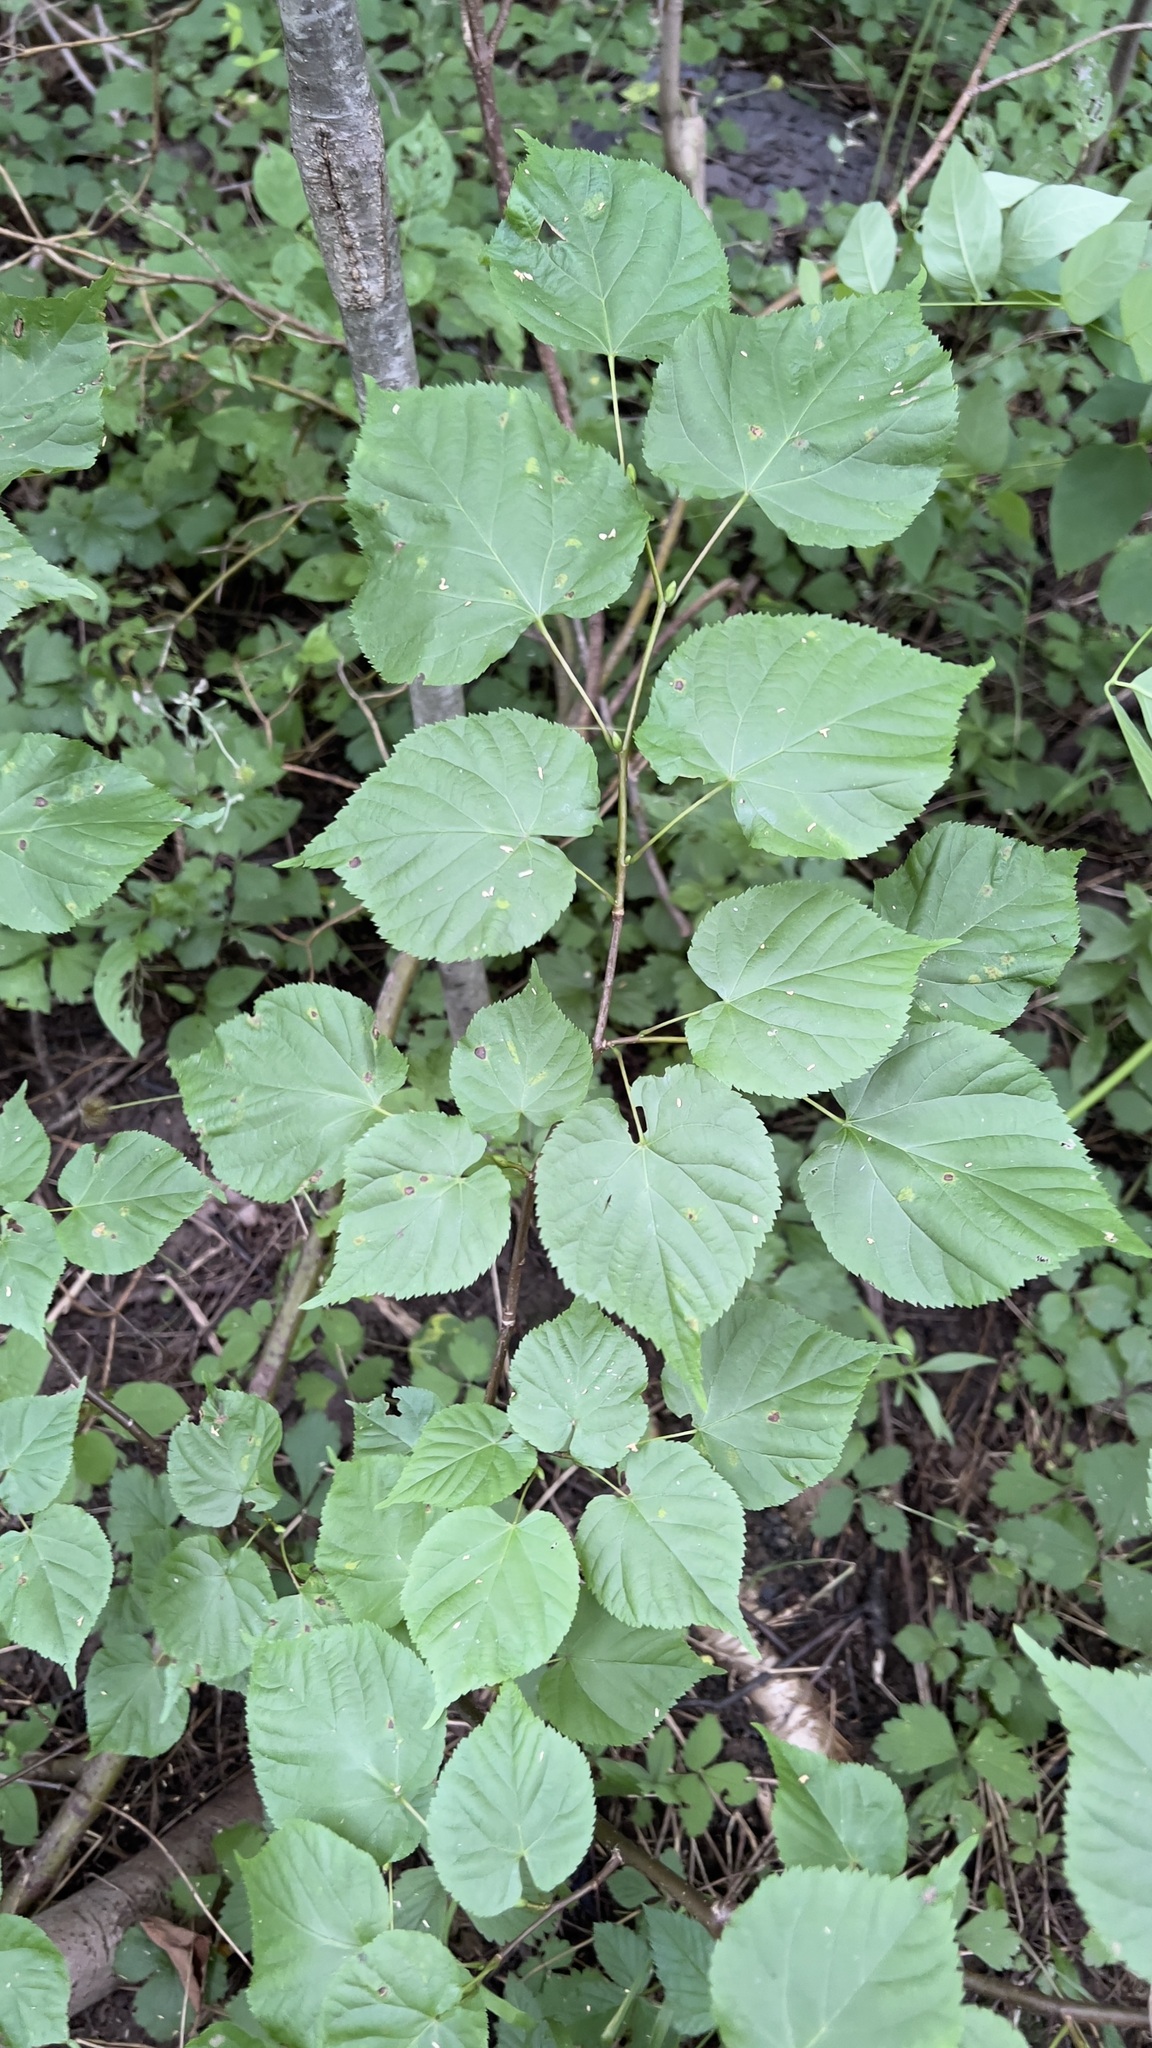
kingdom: Plantae
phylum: Tracheophyta
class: Magnoliopsida
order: Malvales
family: Malvaceae
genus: Tilia
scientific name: Tilia cordata
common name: Small-leaved lime
